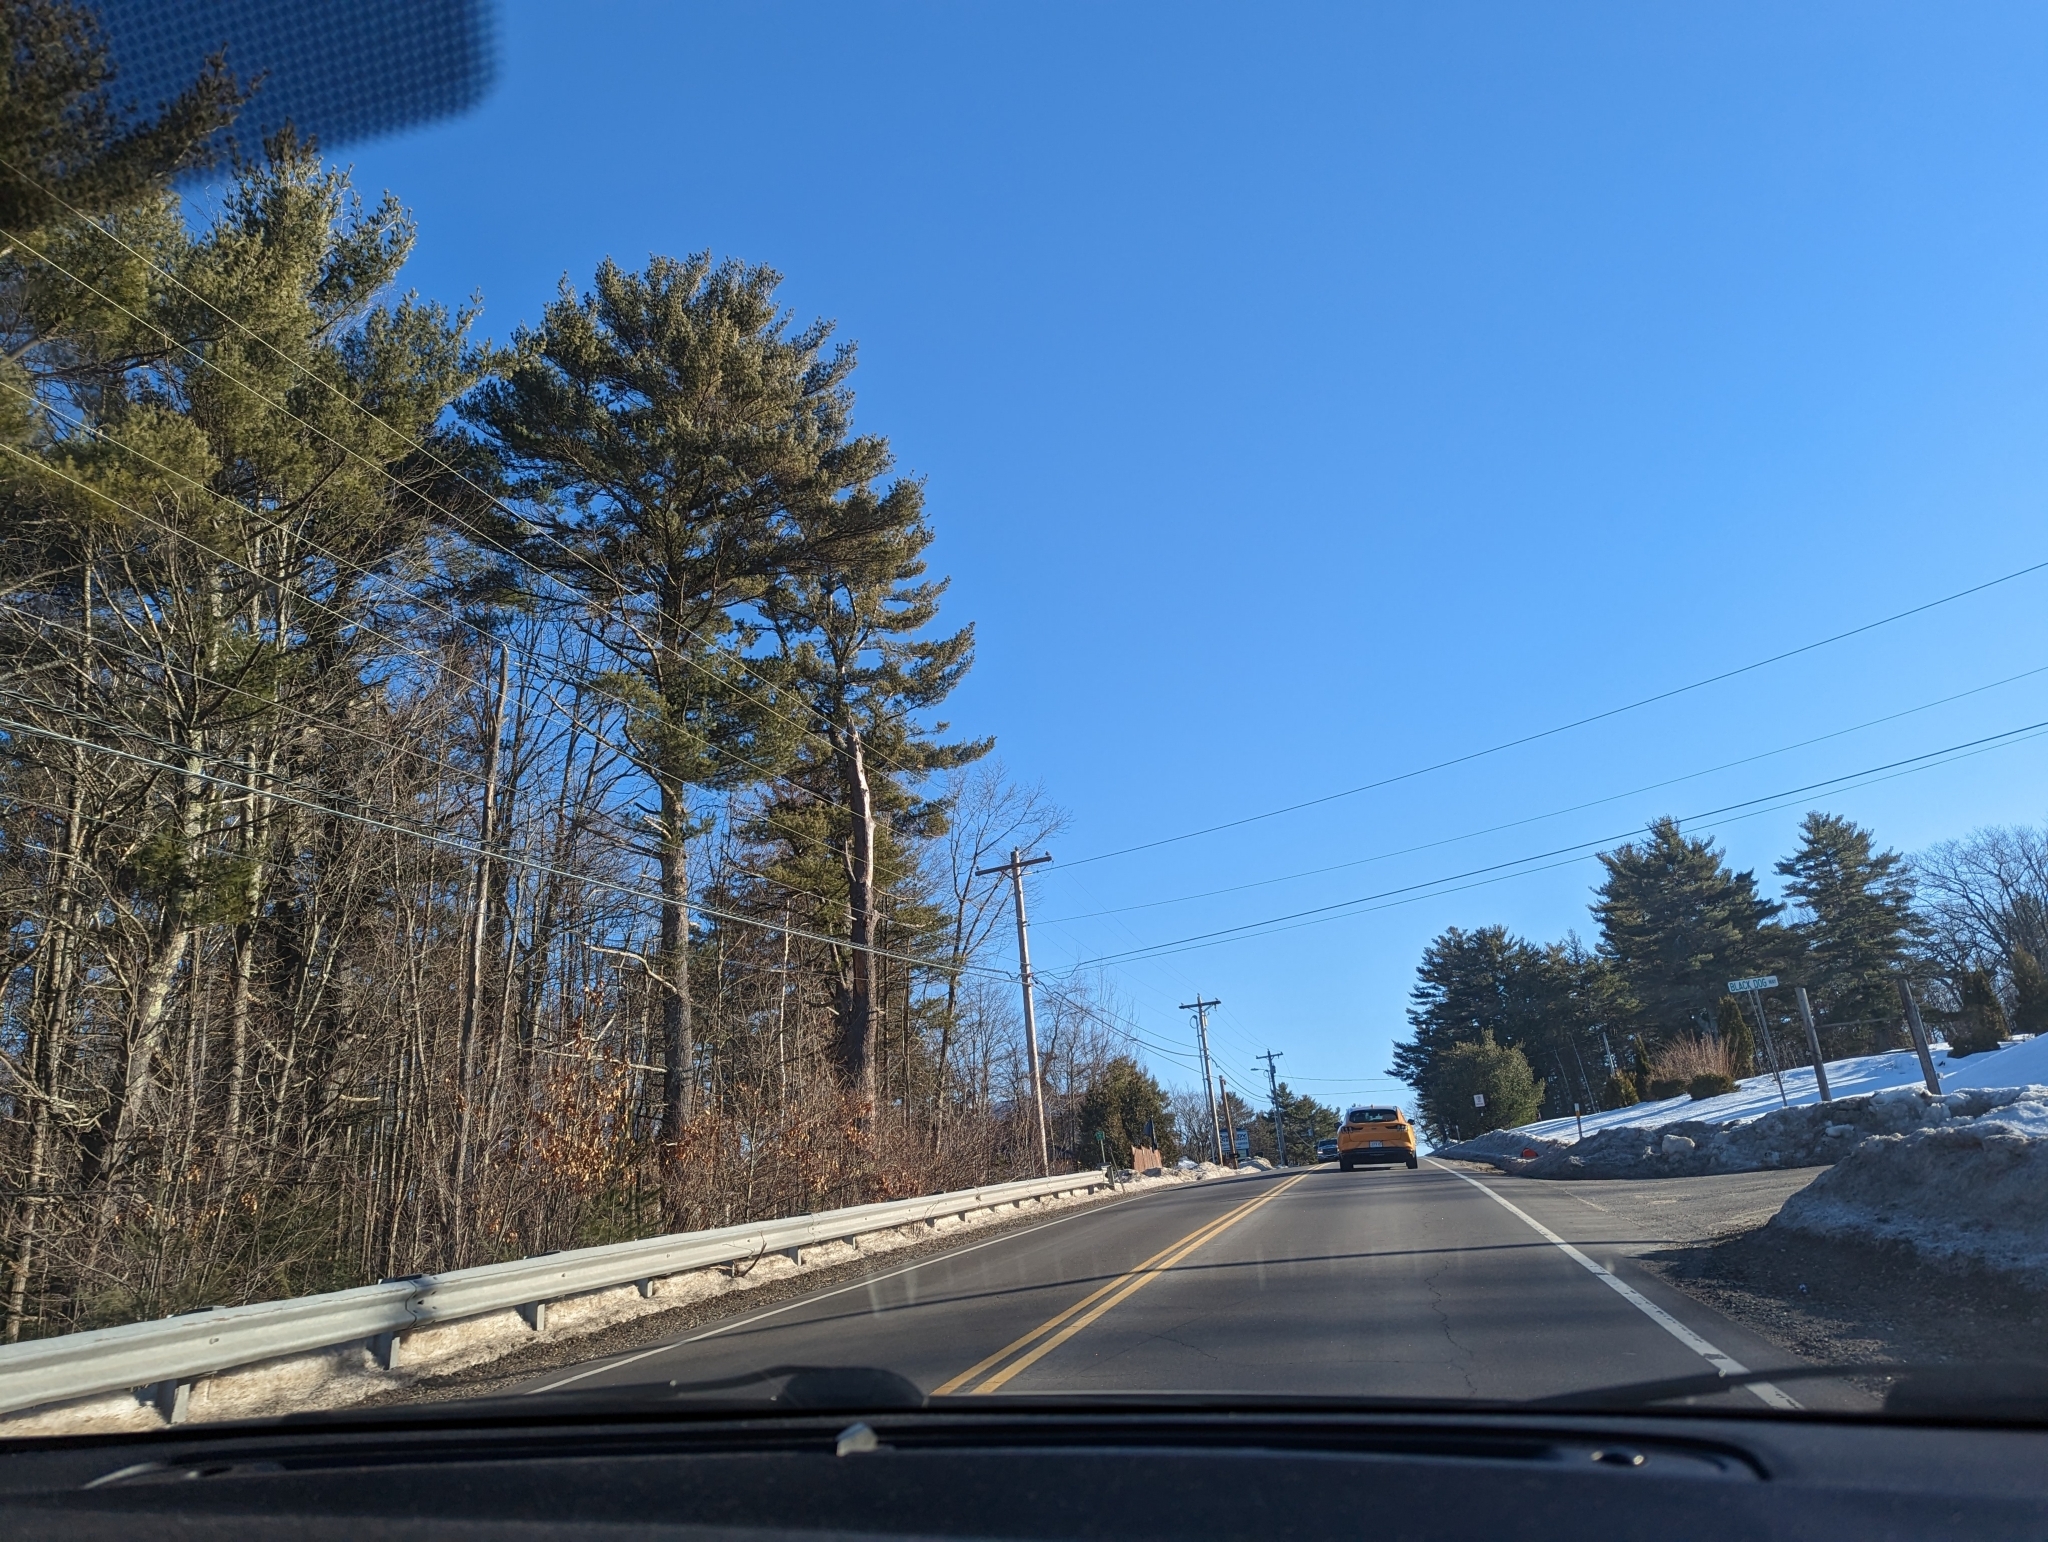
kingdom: Plantae
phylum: Tracheophyta
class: Pinopsida
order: Pinales
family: Pinaceae
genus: Pinus
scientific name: Pinus strobus
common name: Weymouth pine
